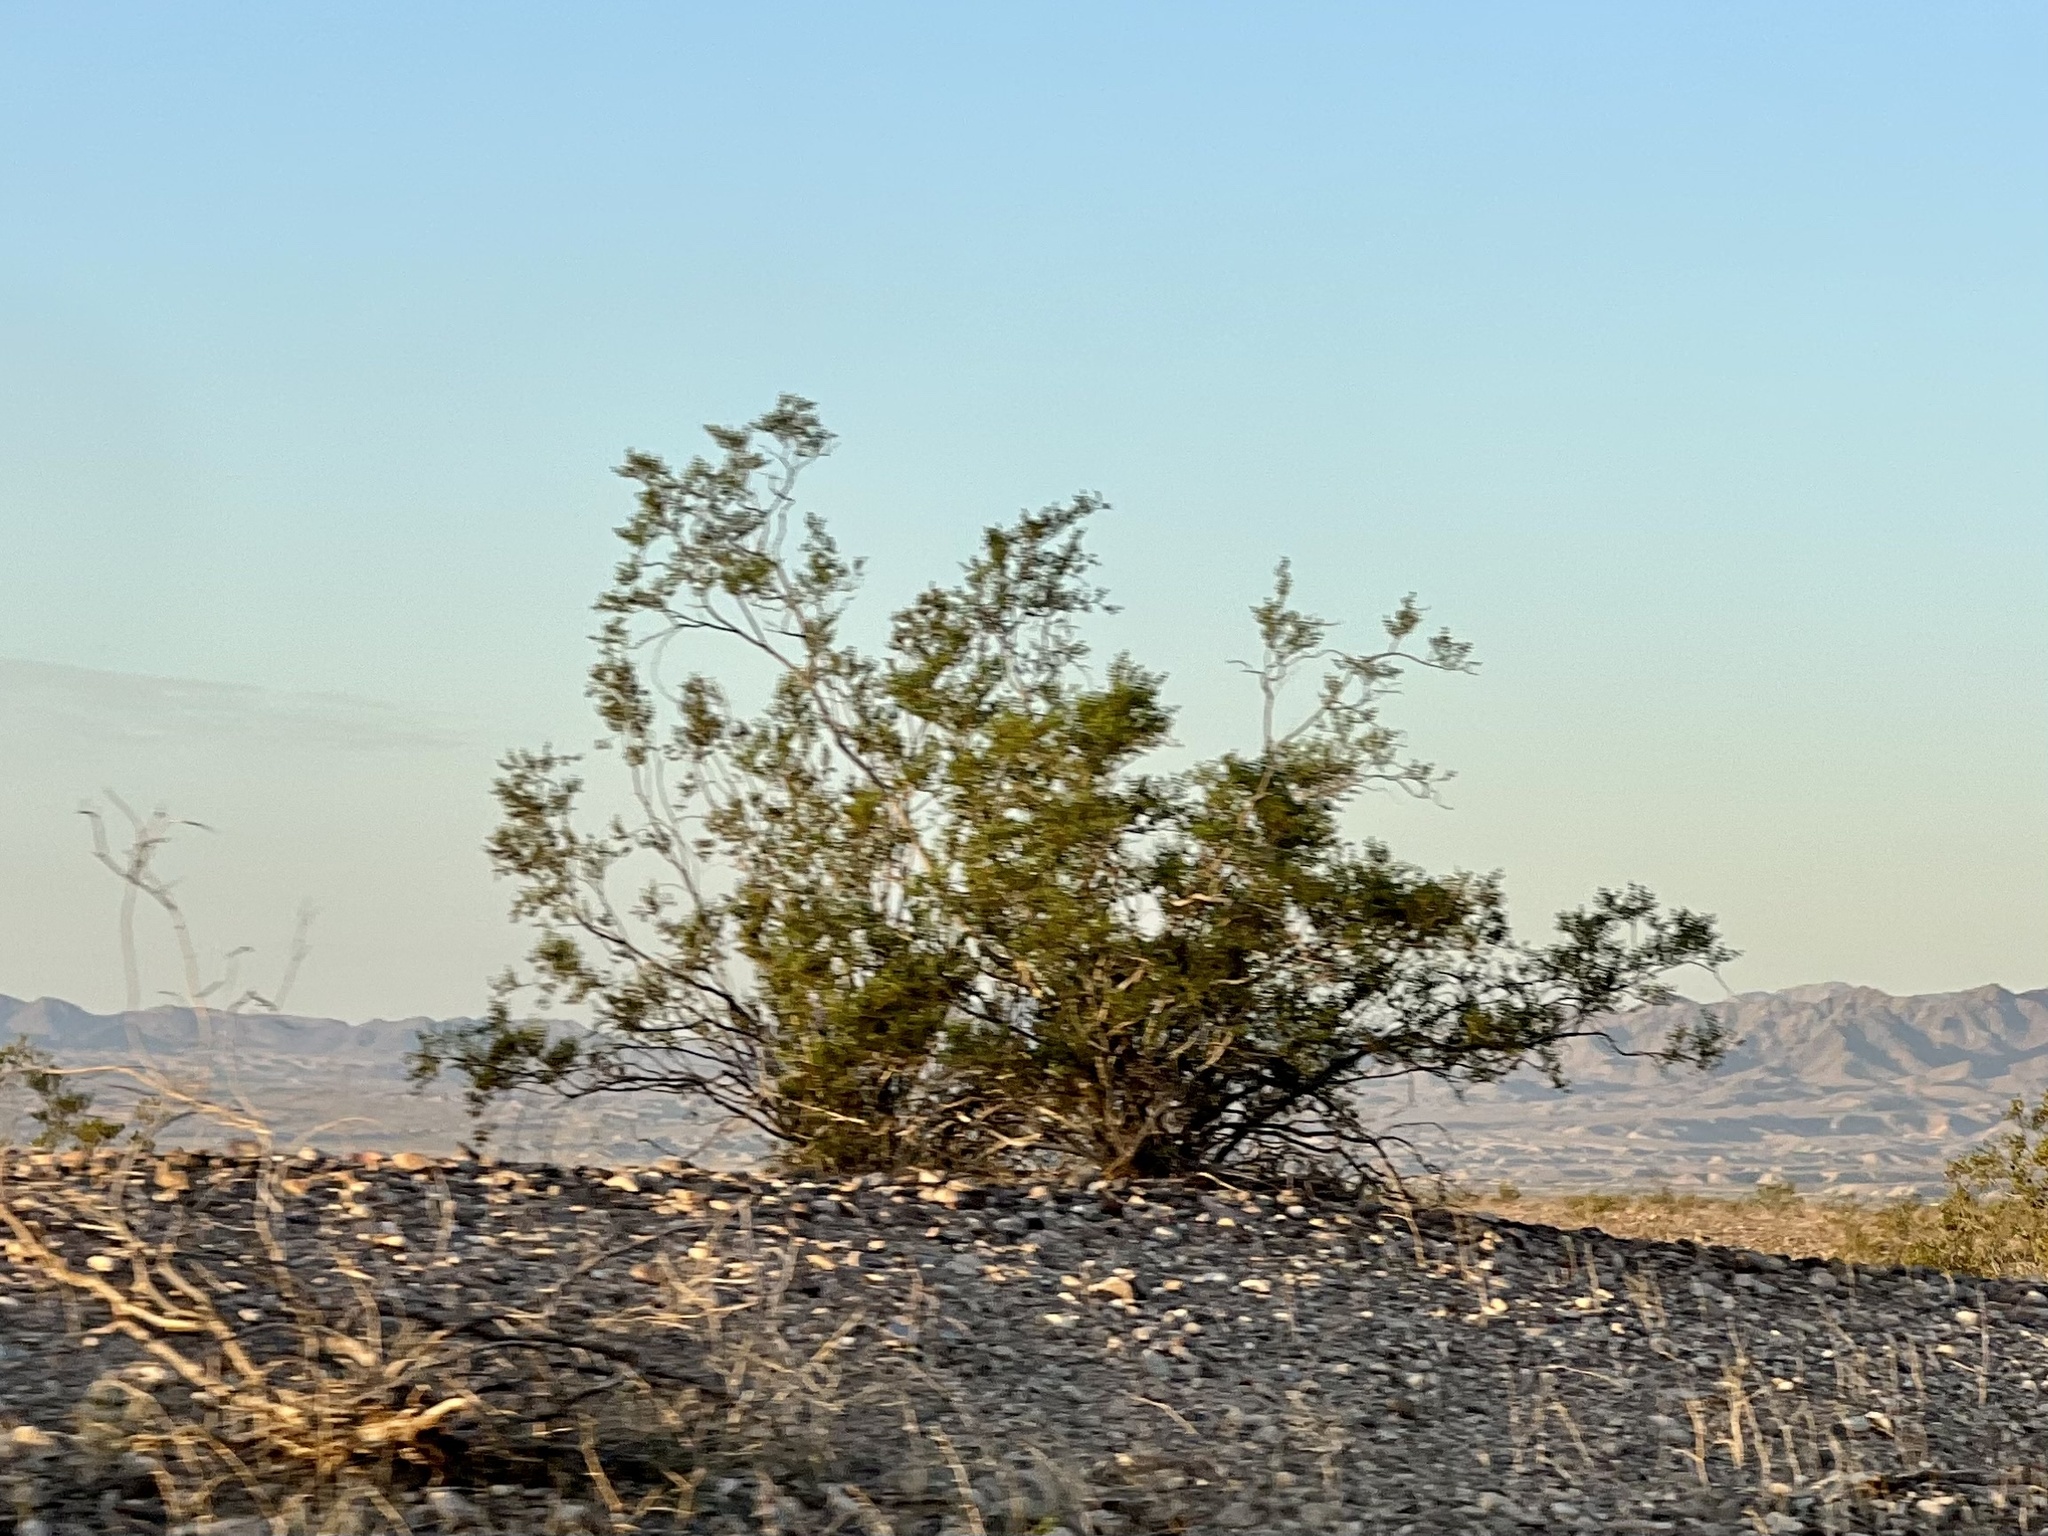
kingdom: Plantae
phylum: Tracheophyta
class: Magnoliopsida
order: Zygophyllales
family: Zygophyllaceae
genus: Larrea
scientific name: Larrea tridentata
